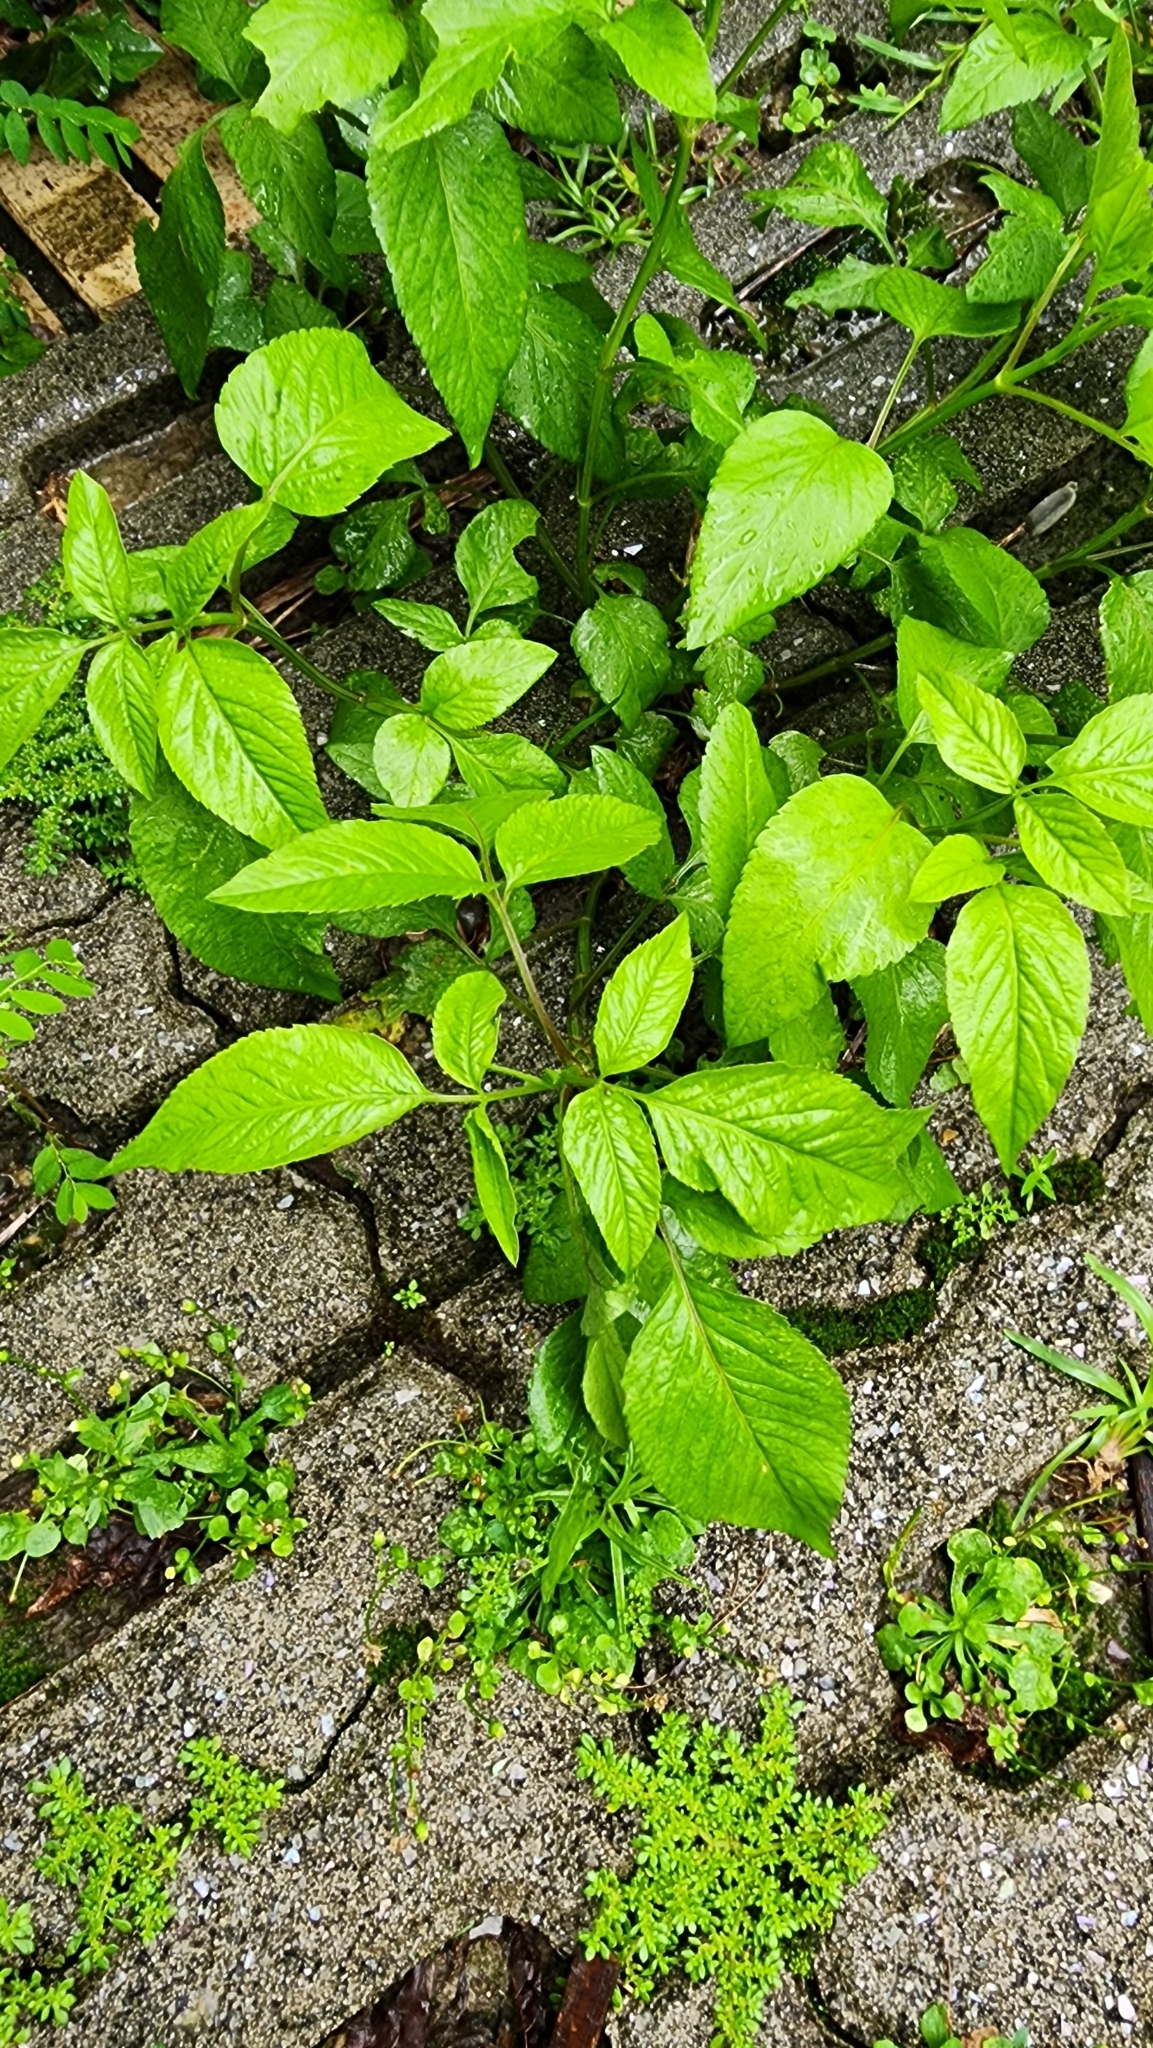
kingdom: Plantae
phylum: Tracheophyta
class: Magnoliopsida
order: Asterales
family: Asteraceae
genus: Bidens
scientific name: Bidens alba
